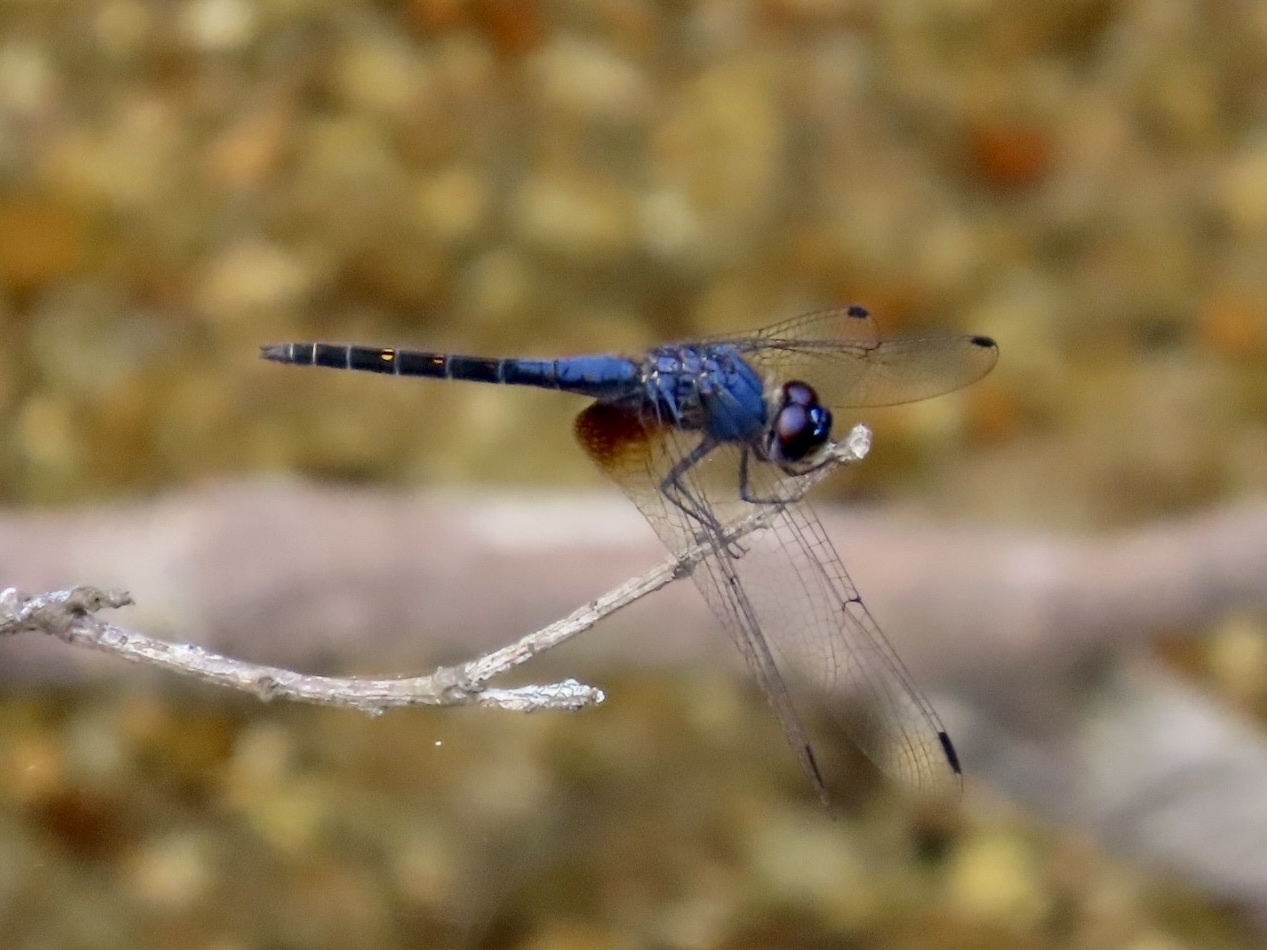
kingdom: Animalia
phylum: Arthropoda
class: Insecta
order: Odonata
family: Libellulidae
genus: Trithemis
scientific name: Trithemis festiva
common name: Indigo dropwing
